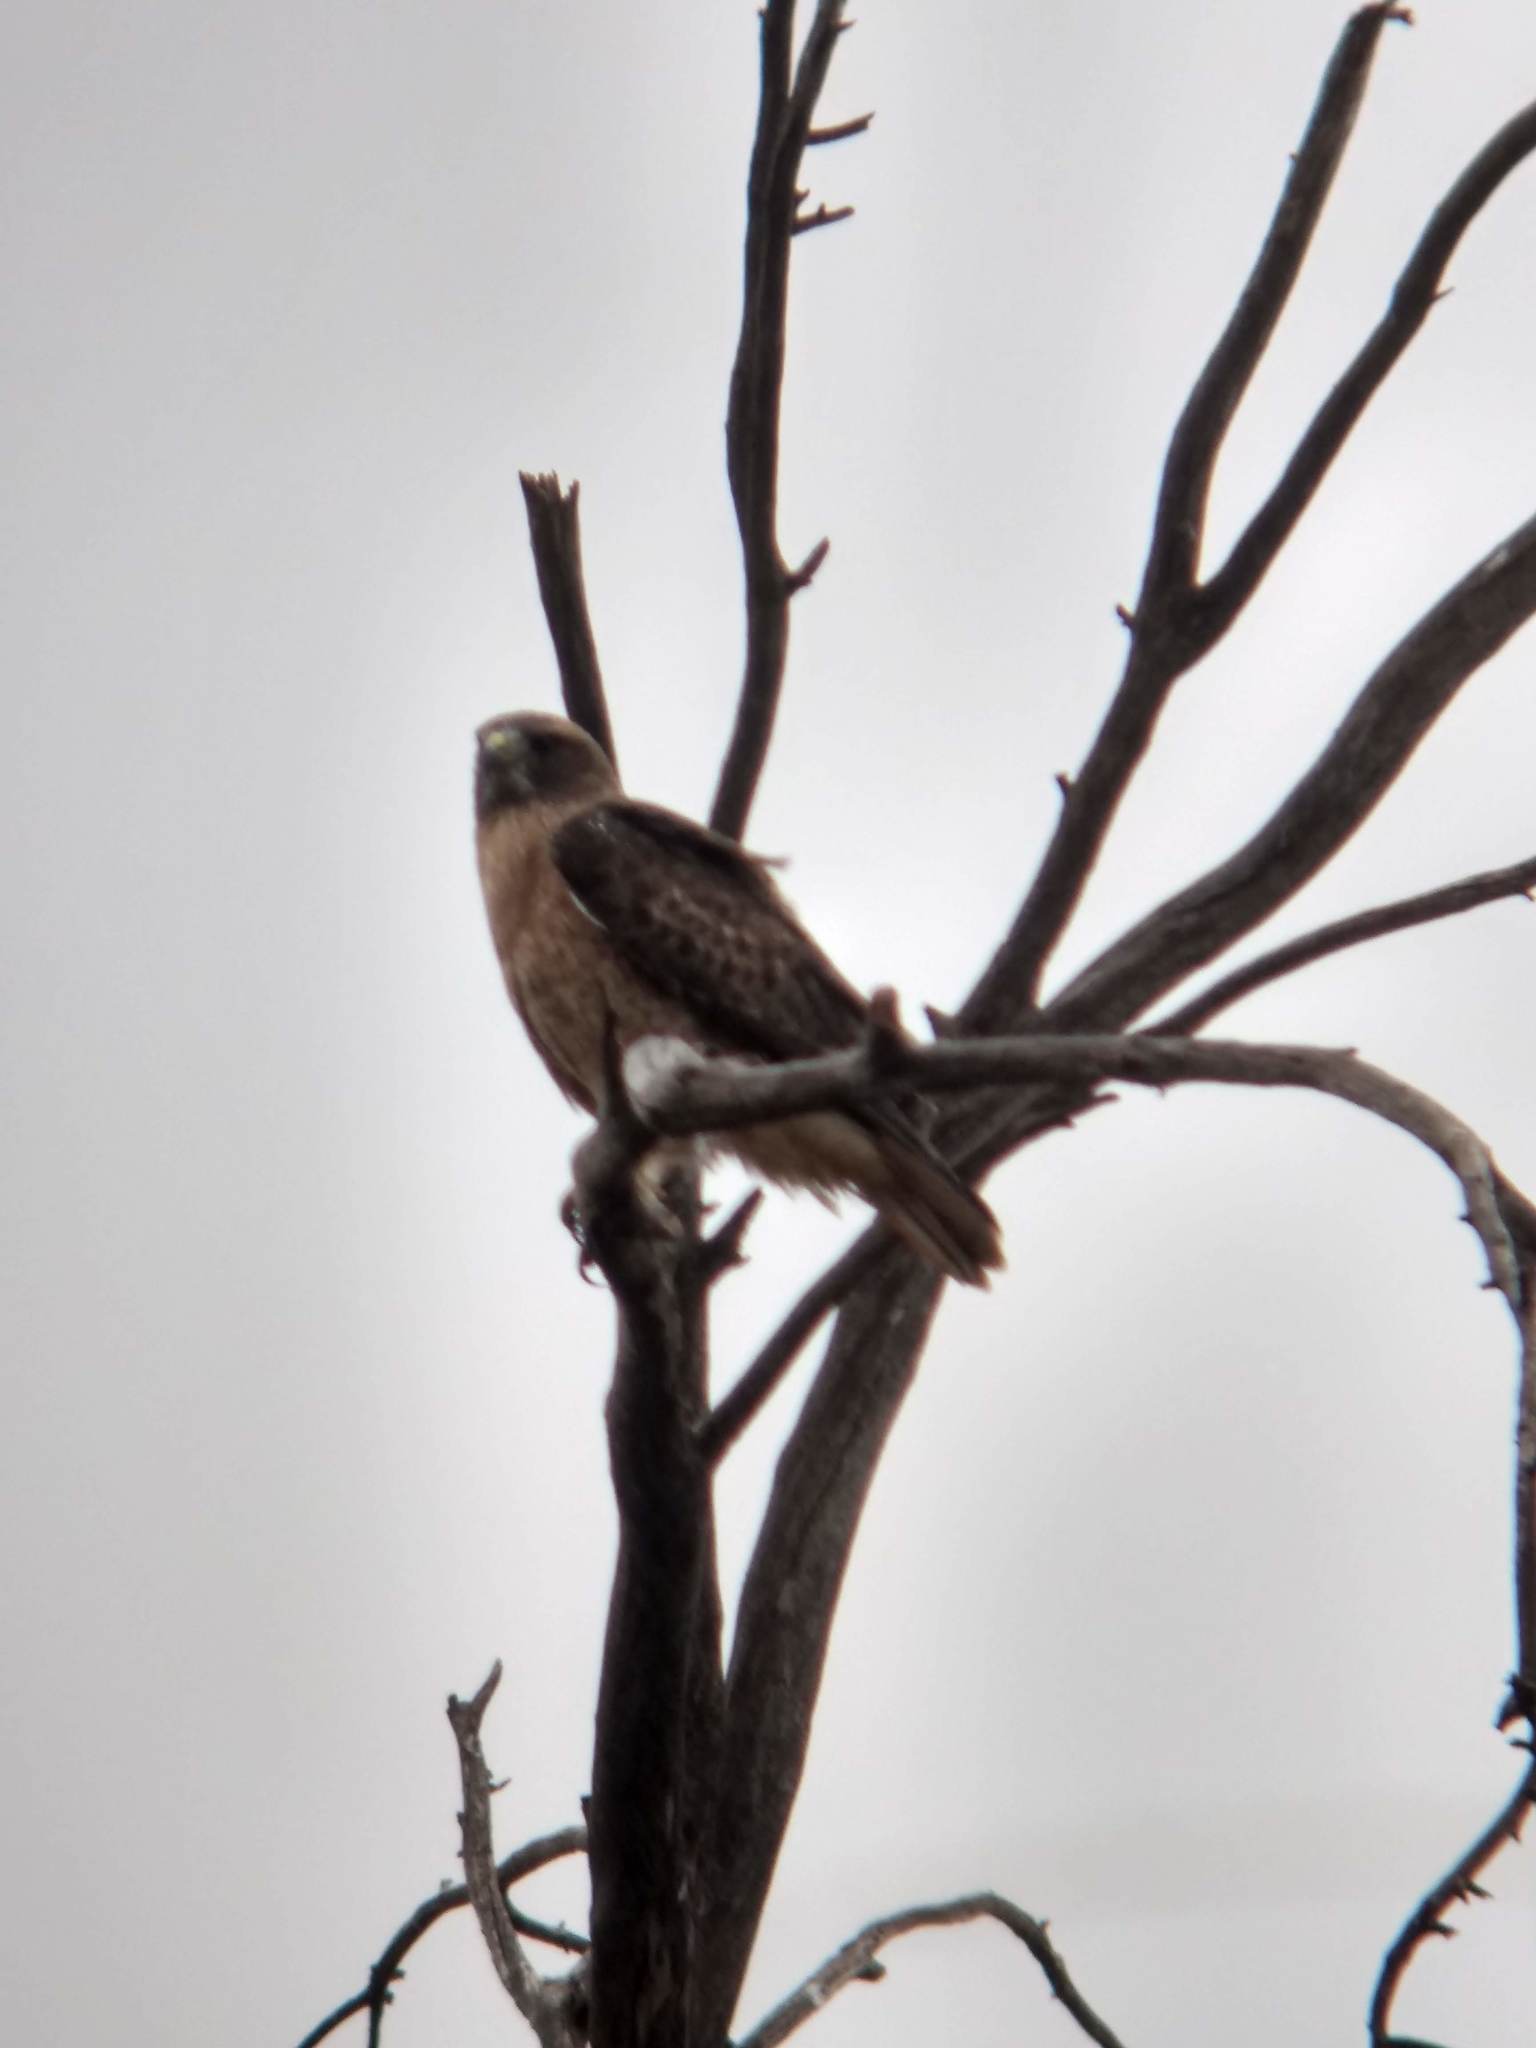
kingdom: Animalia
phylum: Chordata
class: Aves
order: Accipitriformes
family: Accipitridae
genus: Buteo
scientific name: Buteo jamaicensis
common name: Red-tailed hawk
